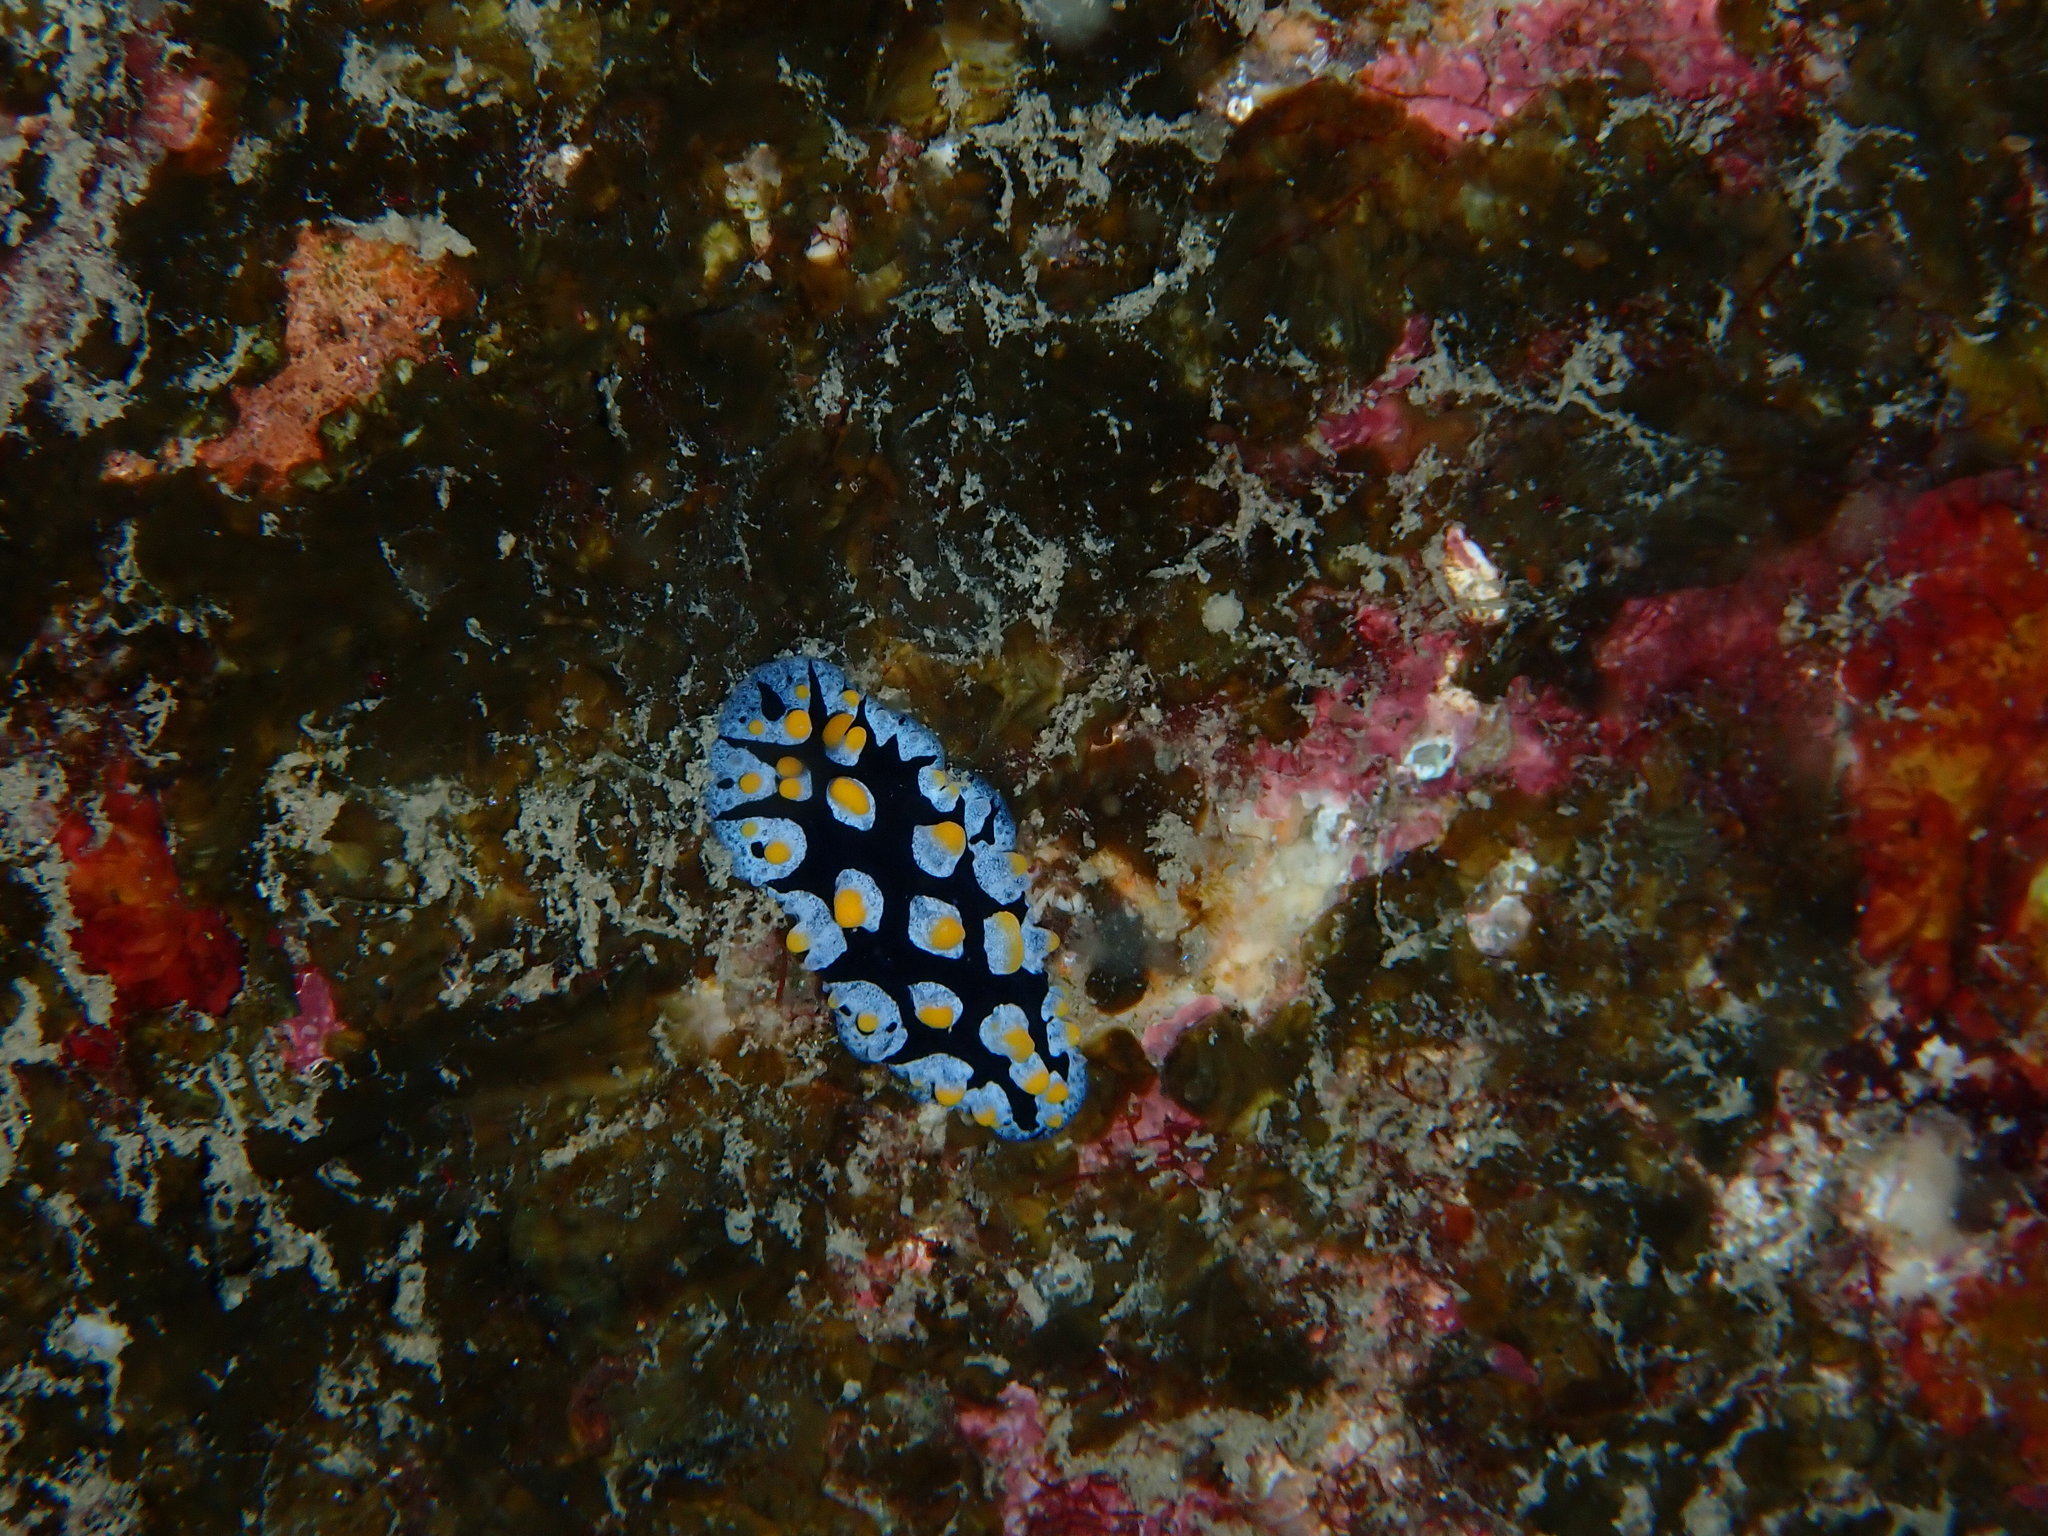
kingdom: Animalia
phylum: Mollusca
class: Gastropoda
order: Nudibranchia
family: Phyllidiidae
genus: Phyllidia
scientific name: Phyllidia picta
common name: Black-rayed phyllidia
